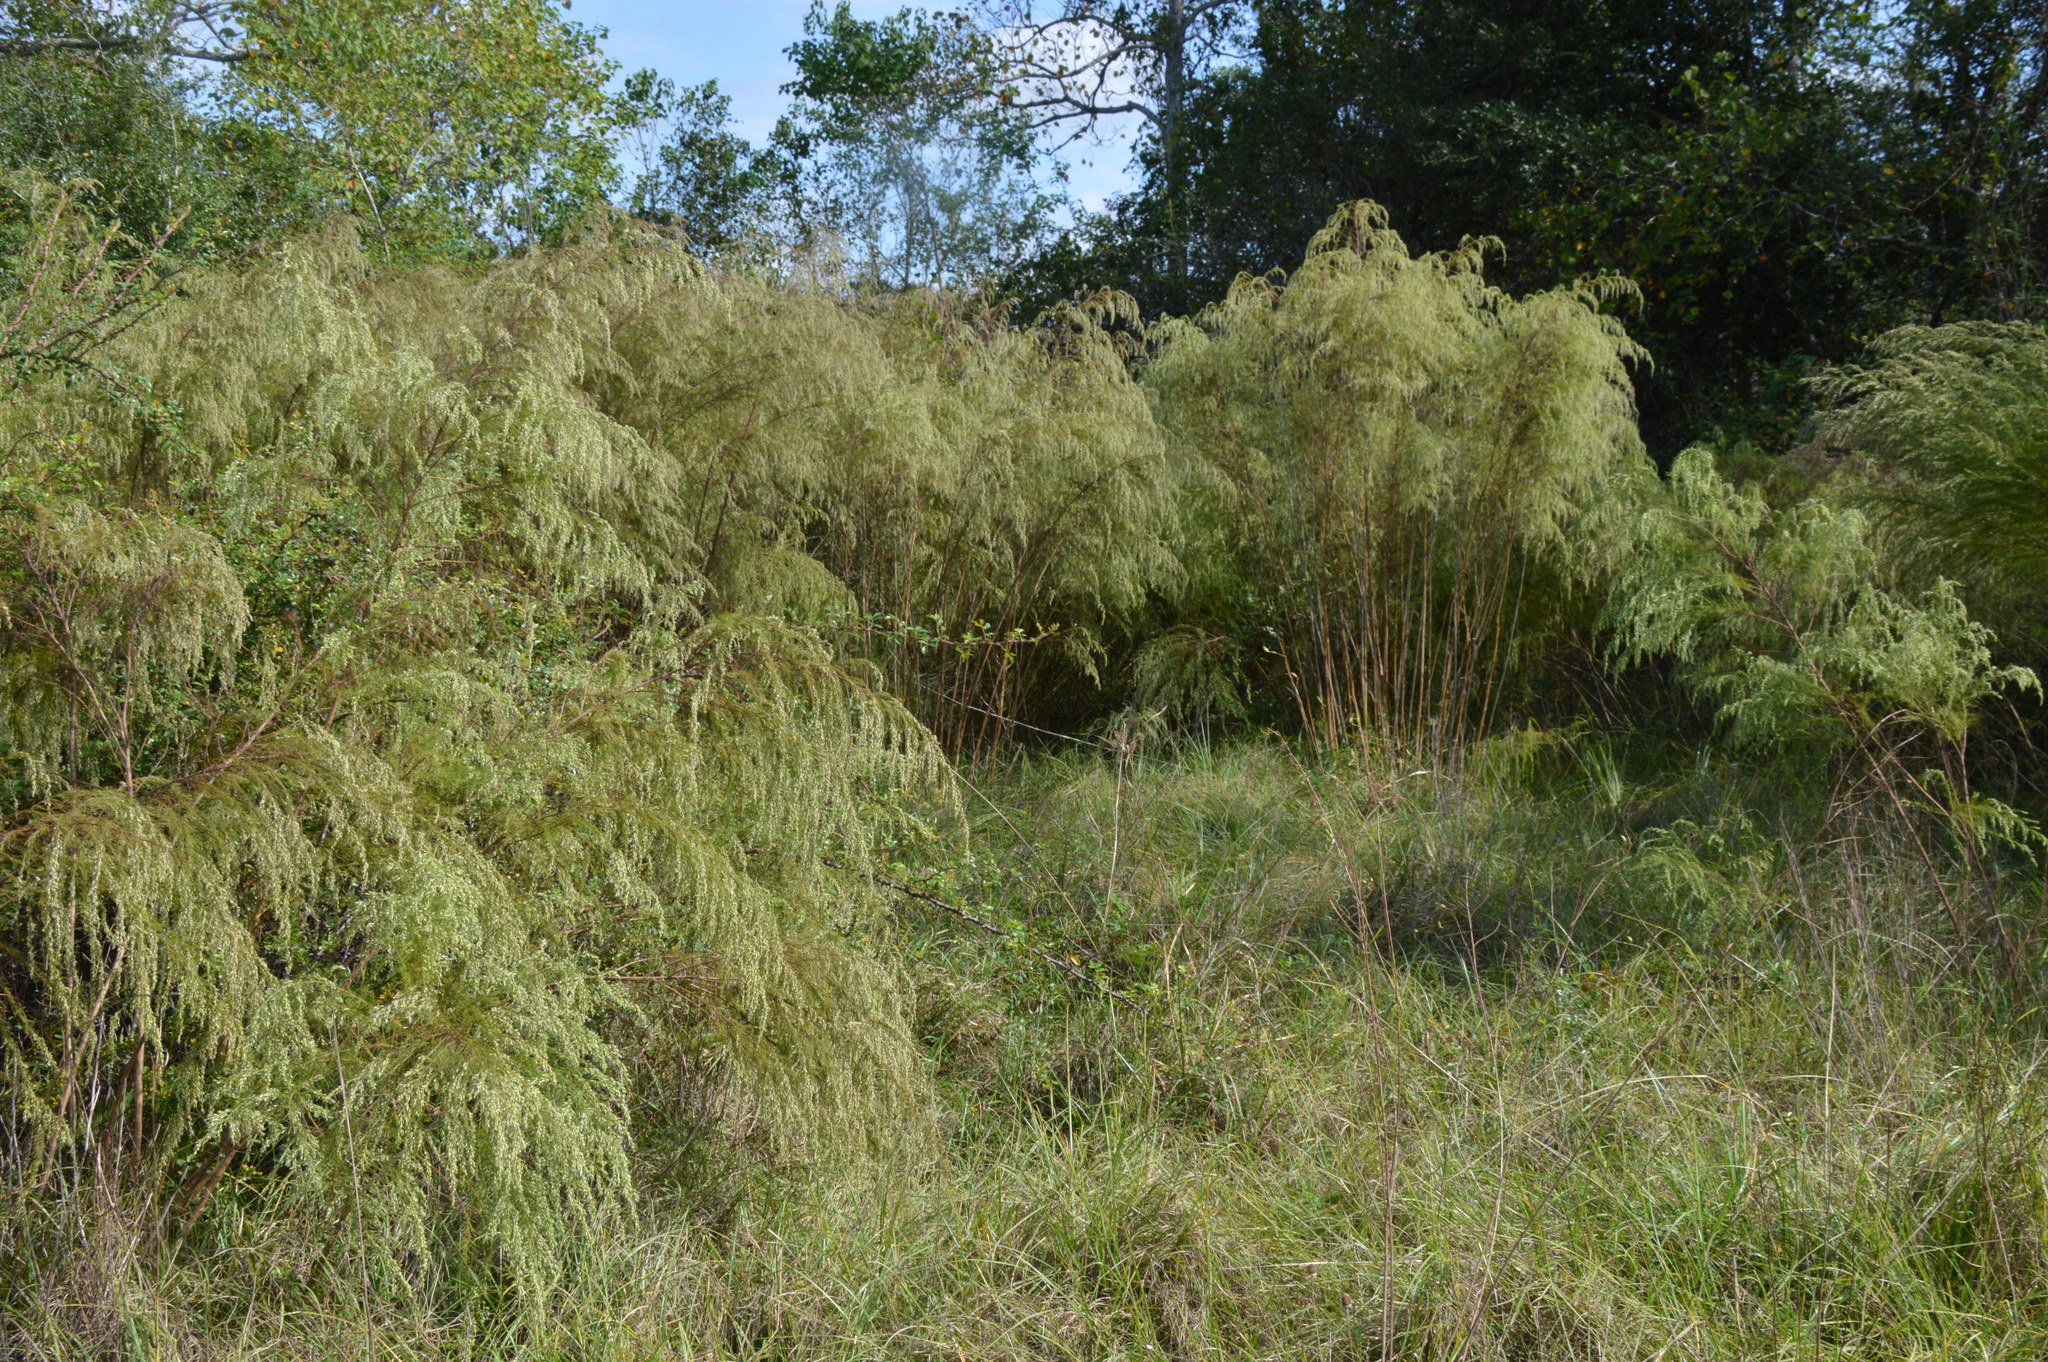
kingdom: Plantae
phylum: Tracheophyta
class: Magnoliopsida
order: Asterales
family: Asteraceae
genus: Eupatorium
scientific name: Eupatorium capillifolium
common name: Dog-fennel
